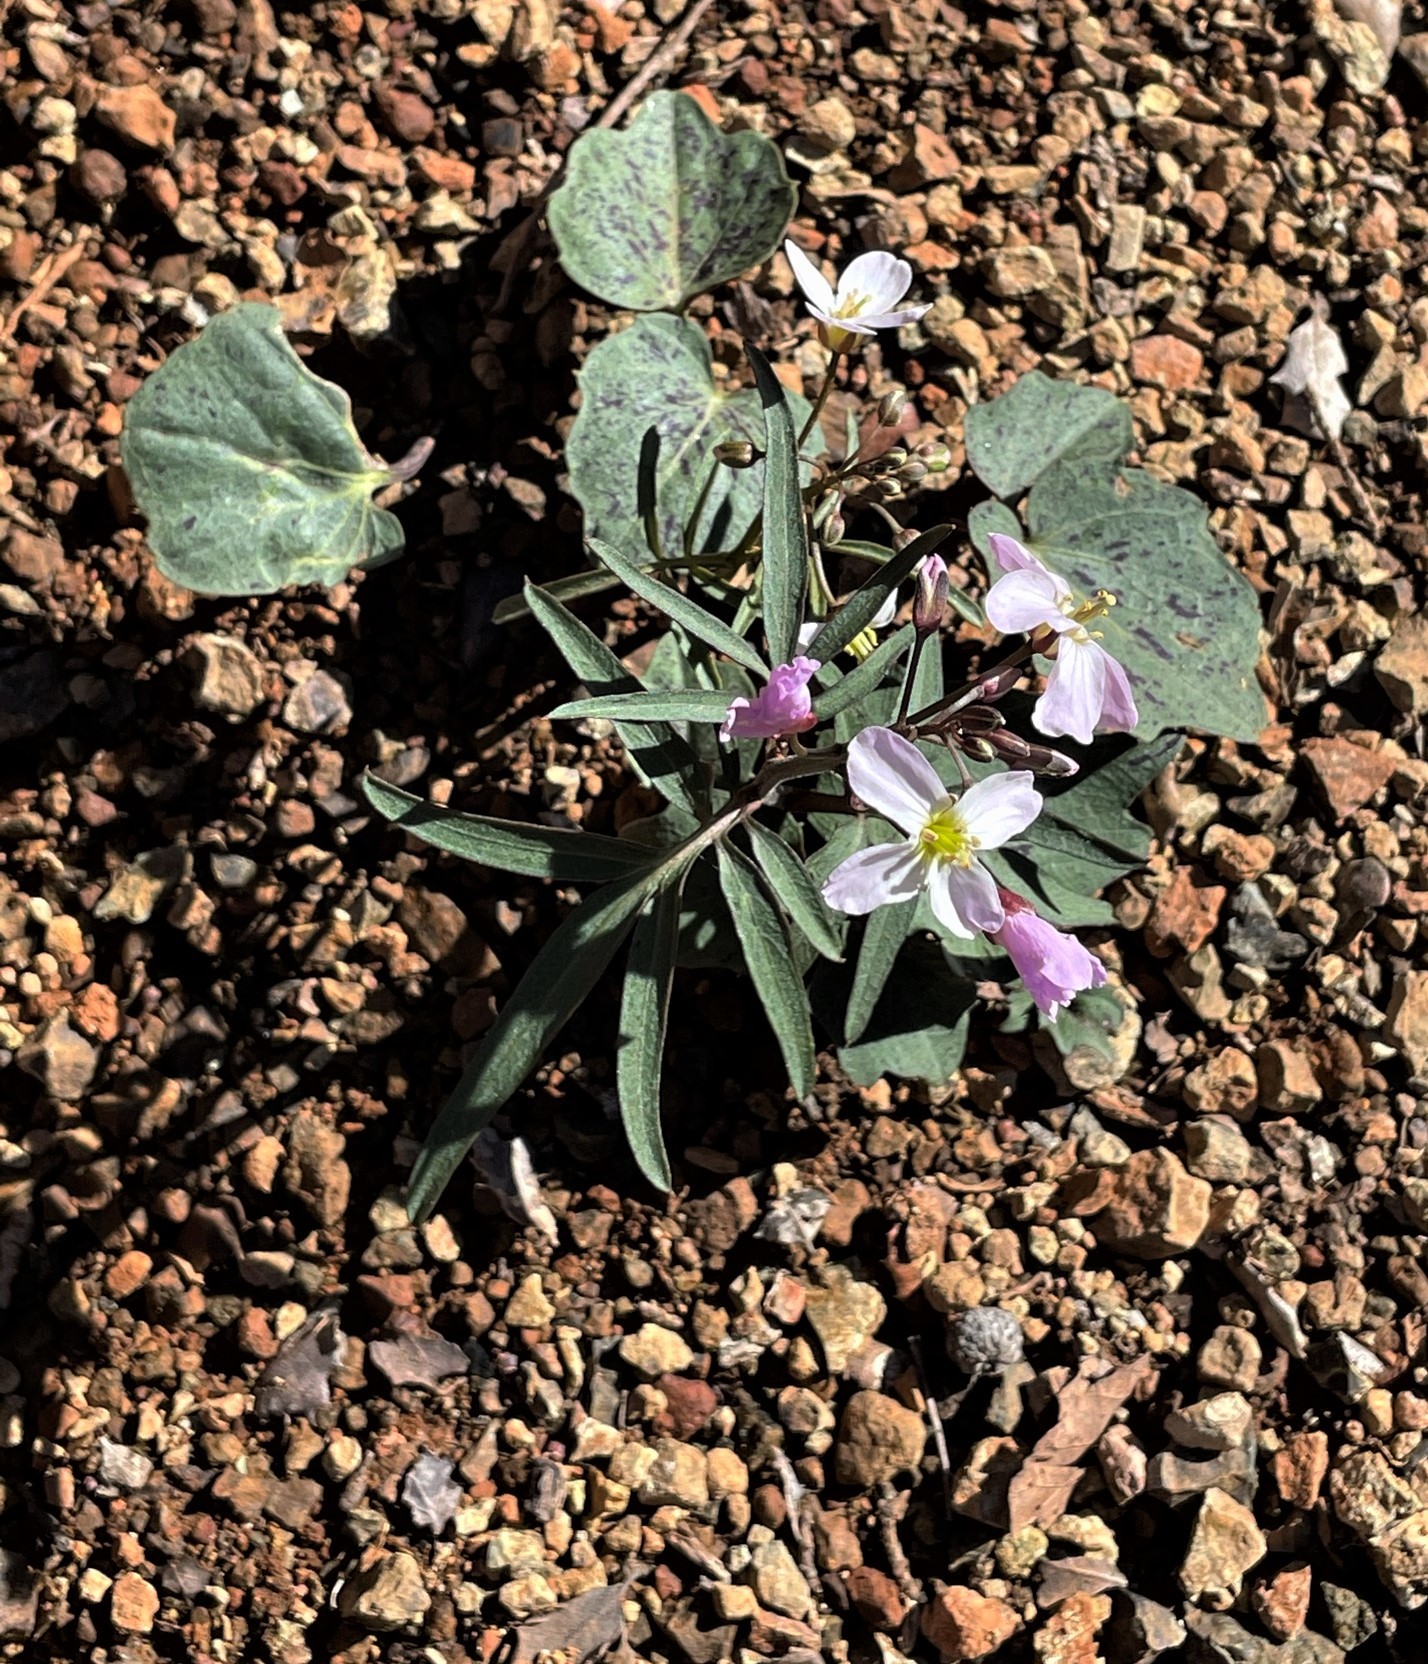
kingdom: Plantae
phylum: Tracheophyta
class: Magnoliopsida
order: Brassicales
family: Brassicaceae
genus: Cardamine
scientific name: Cardamine californica
